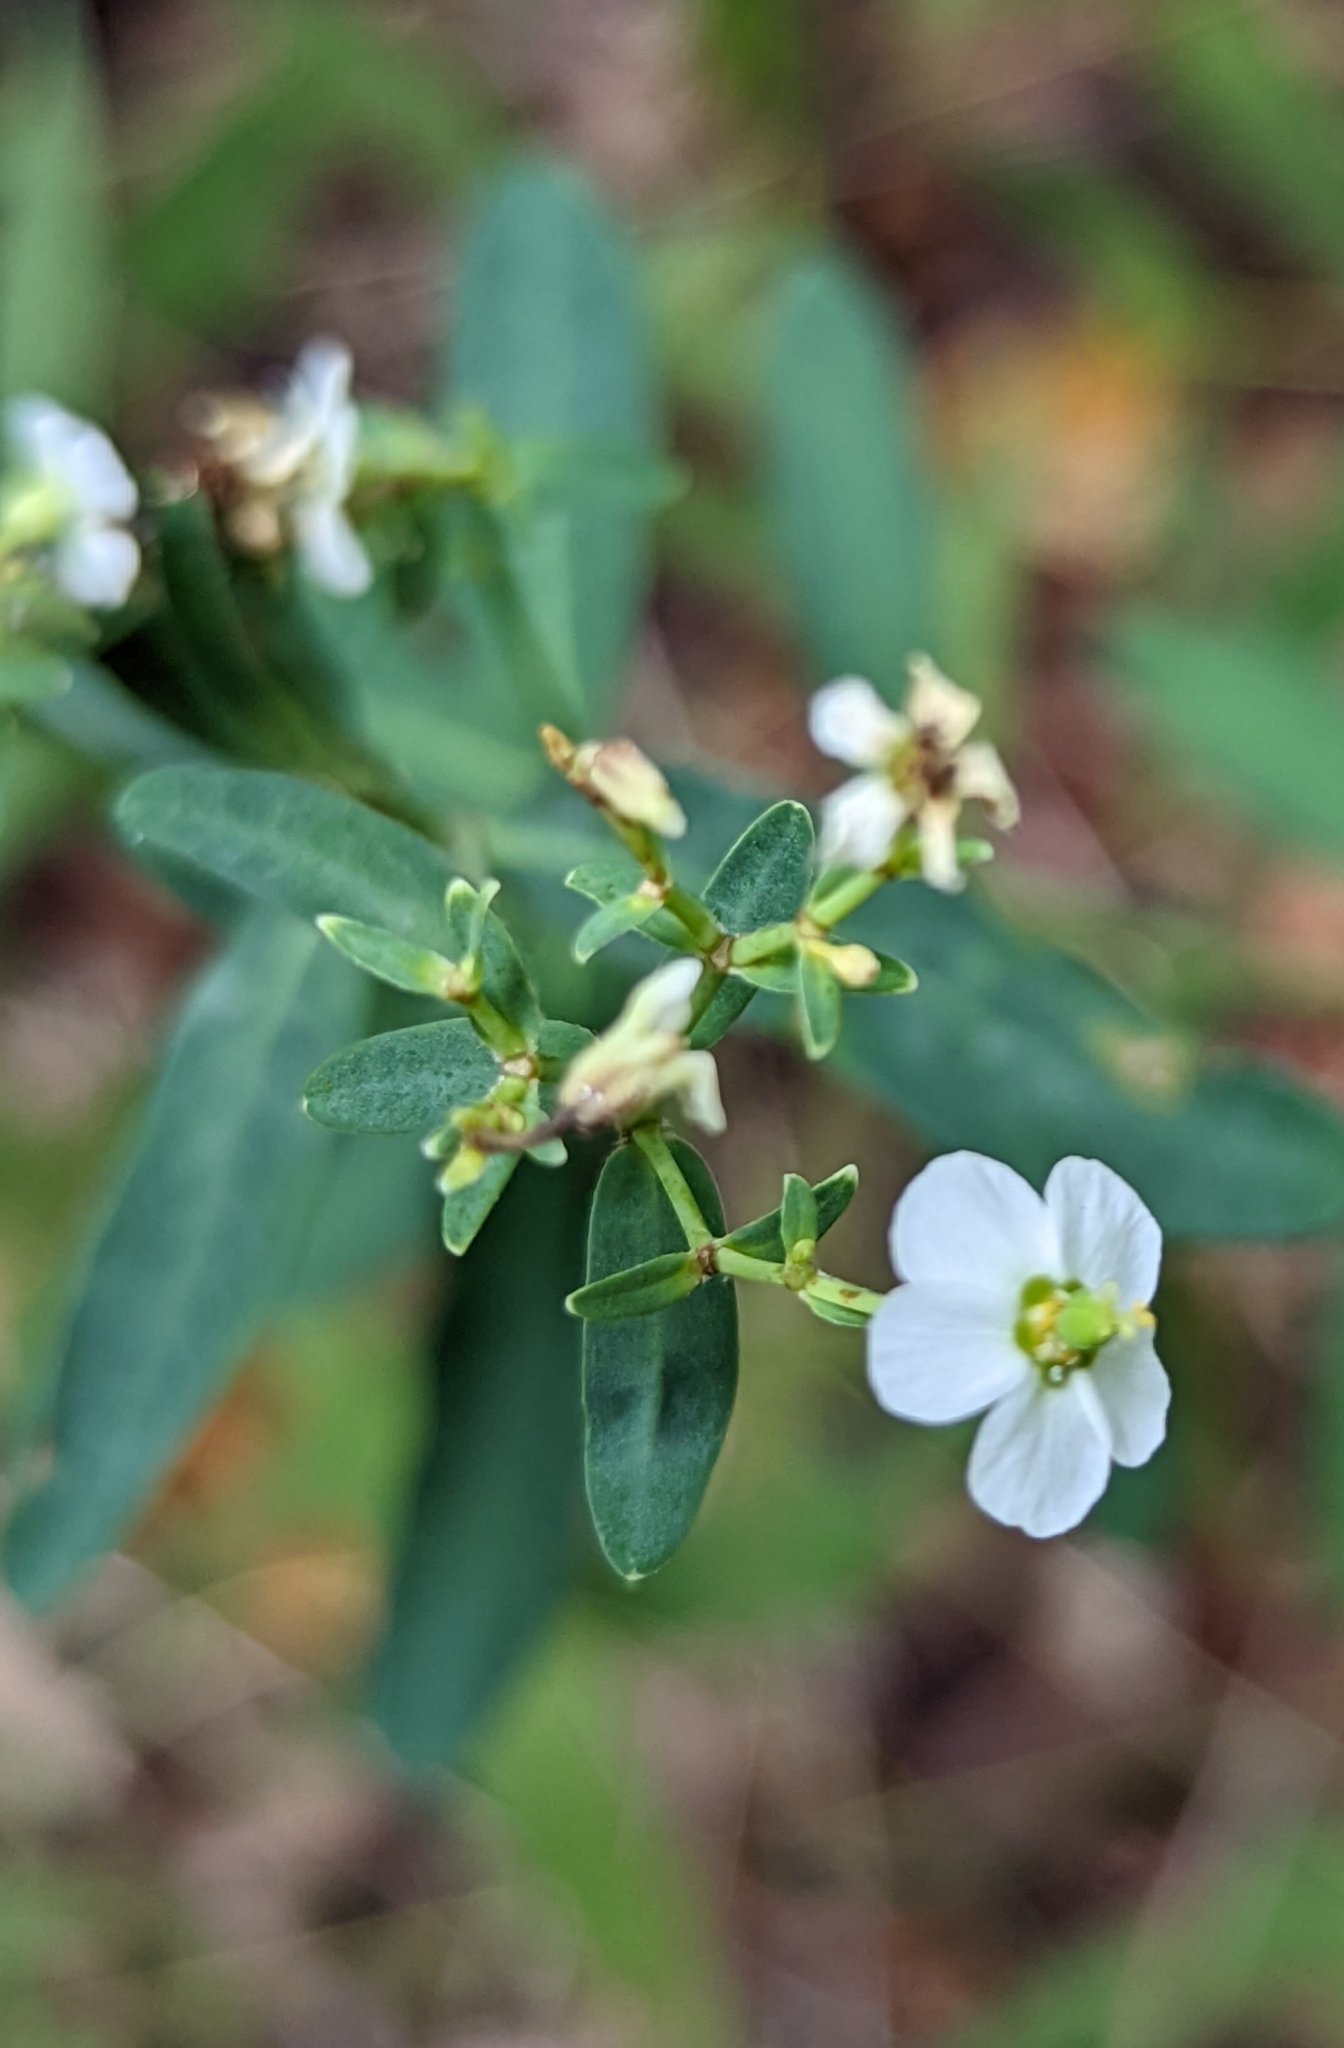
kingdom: Plantae
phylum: Tracheophyta
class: Magnoliopsida
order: Malpighiales
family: Euphorbiaceae
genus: Euphorbia
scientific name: Euphorbia corollata
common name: Flowering spurge
